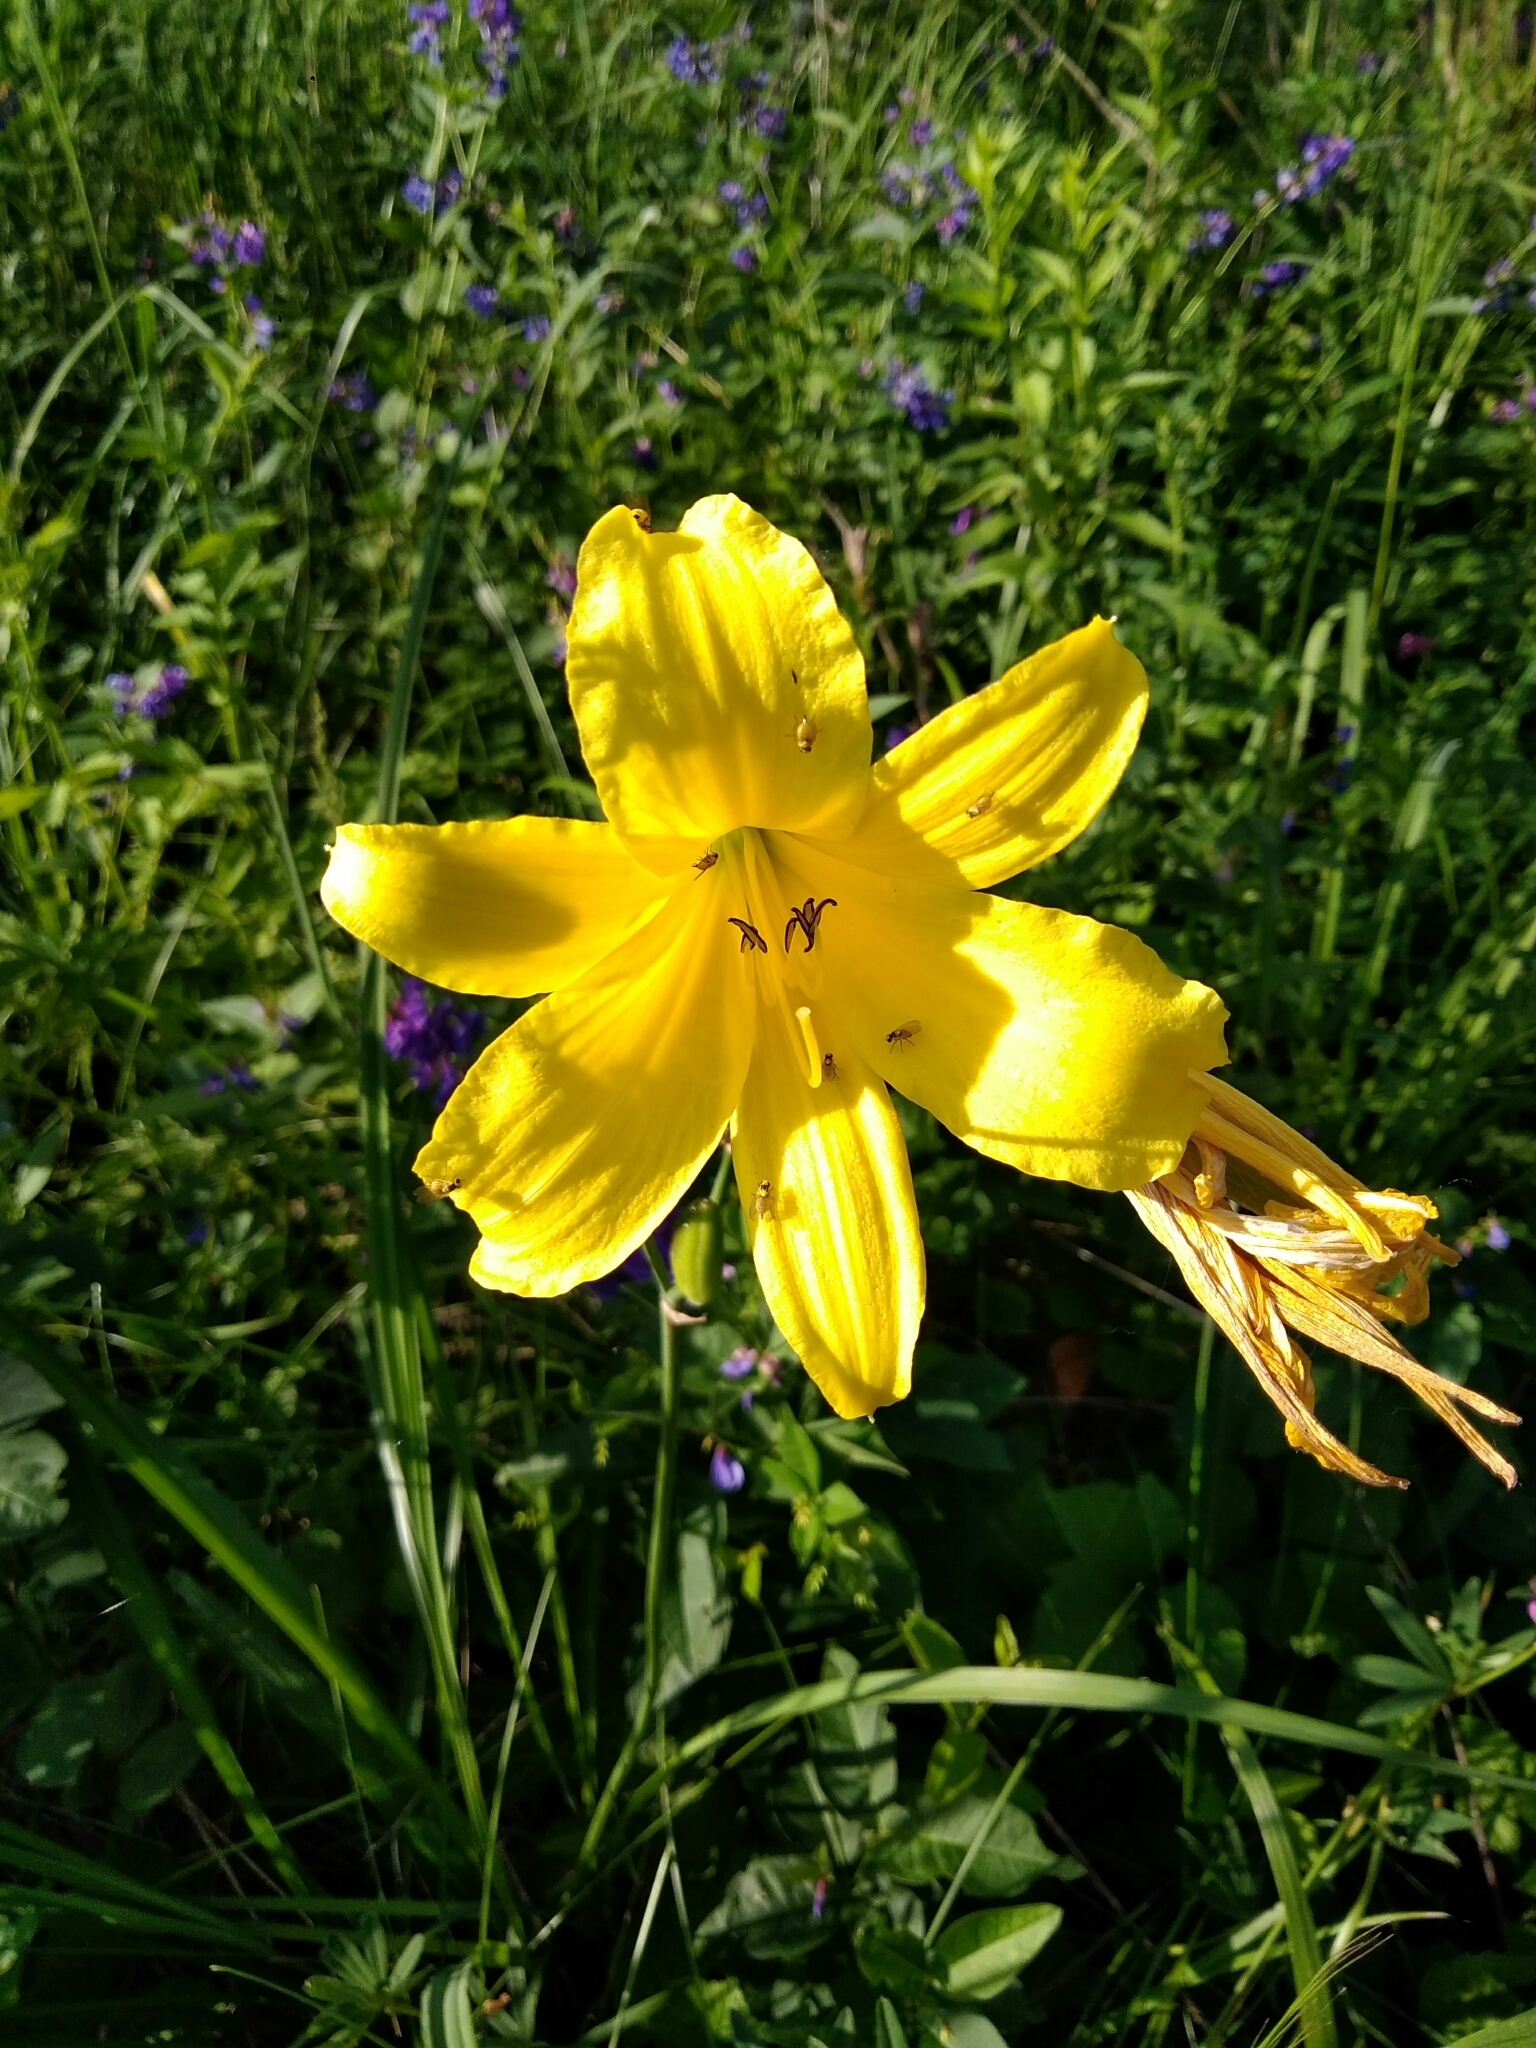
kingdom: Plantae
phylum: Tracheophyta
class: Liliopsida
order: Asparagales
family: Asphodelaceae
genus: Hemerocallis
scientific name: Hemerocallis minor
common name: Small daylily
